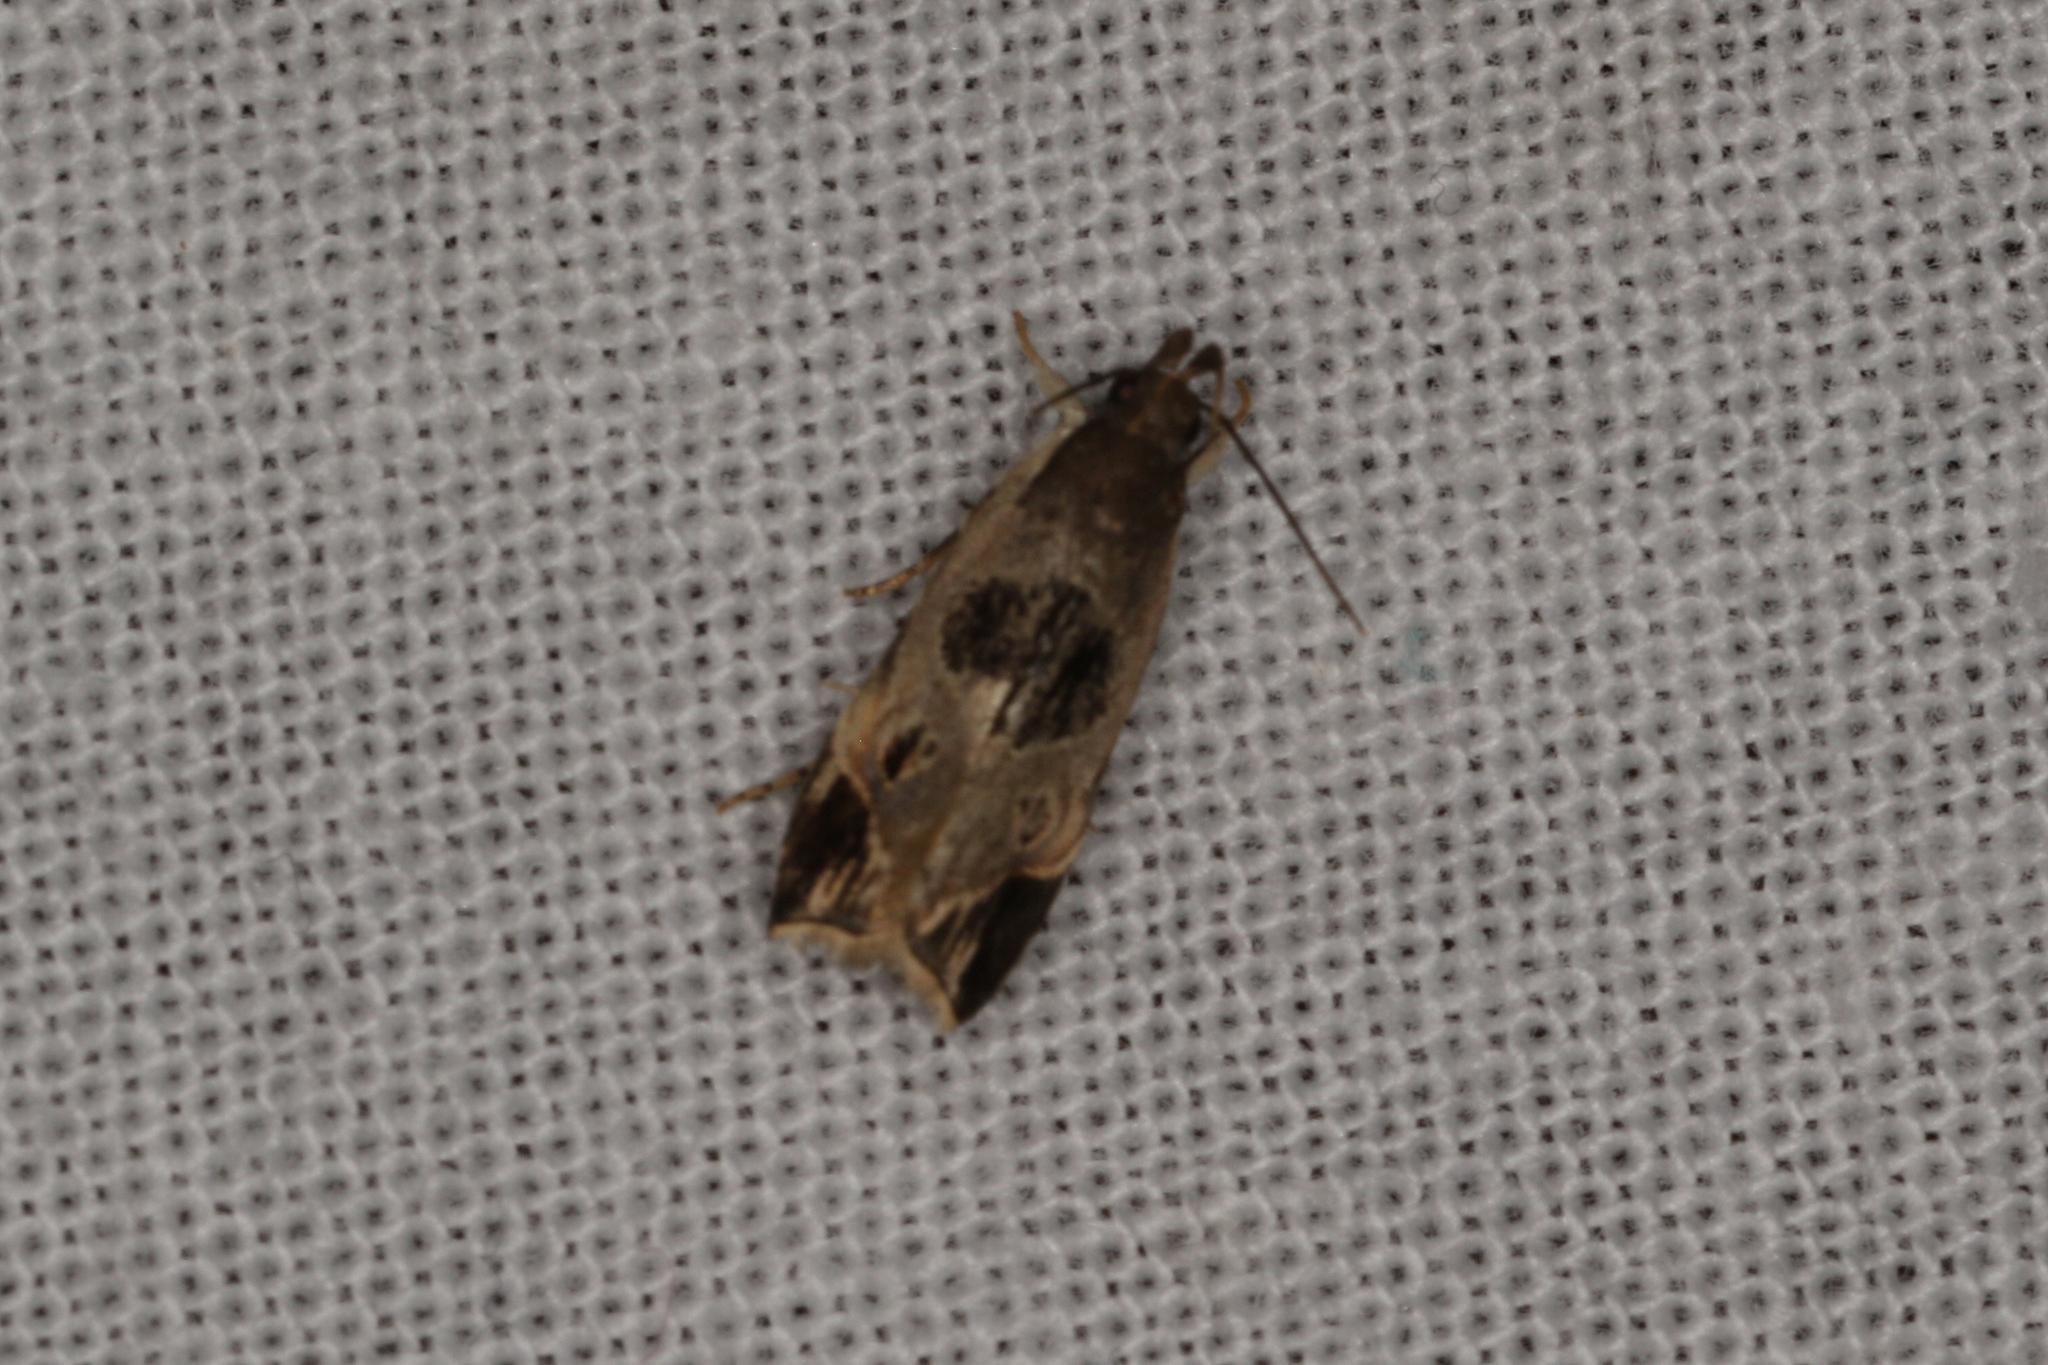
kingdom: Animalia
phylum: Arthropoda
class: Insecta
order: Lepidoptera
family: Gelechiidae
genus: Helcystogramma
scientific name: Helcystogramma hibisci
